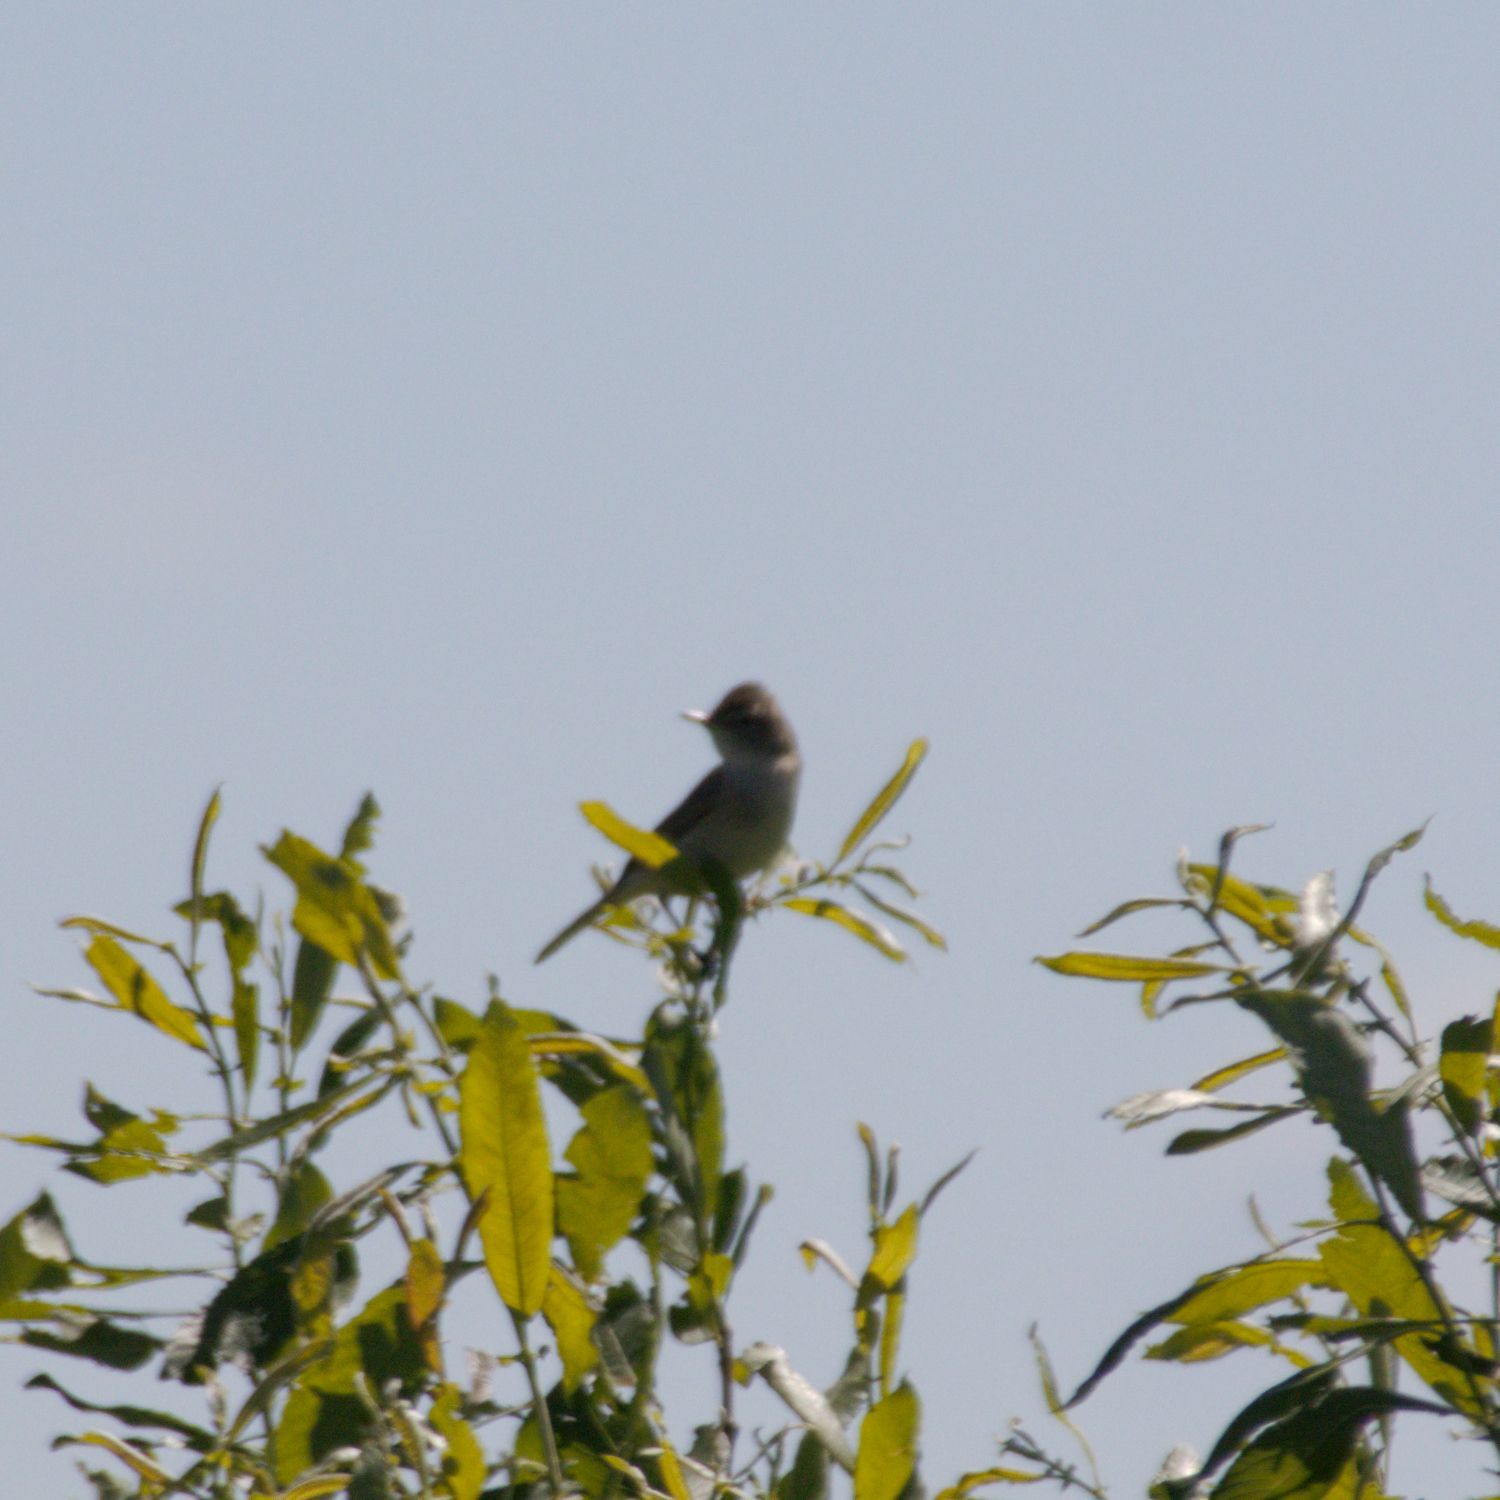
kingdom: Animalia
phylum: Chordata
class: Aves
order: Passeriformes
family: Acrocephalidae
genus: Iduna
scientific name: Iduna caligata
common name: Booted warbler
